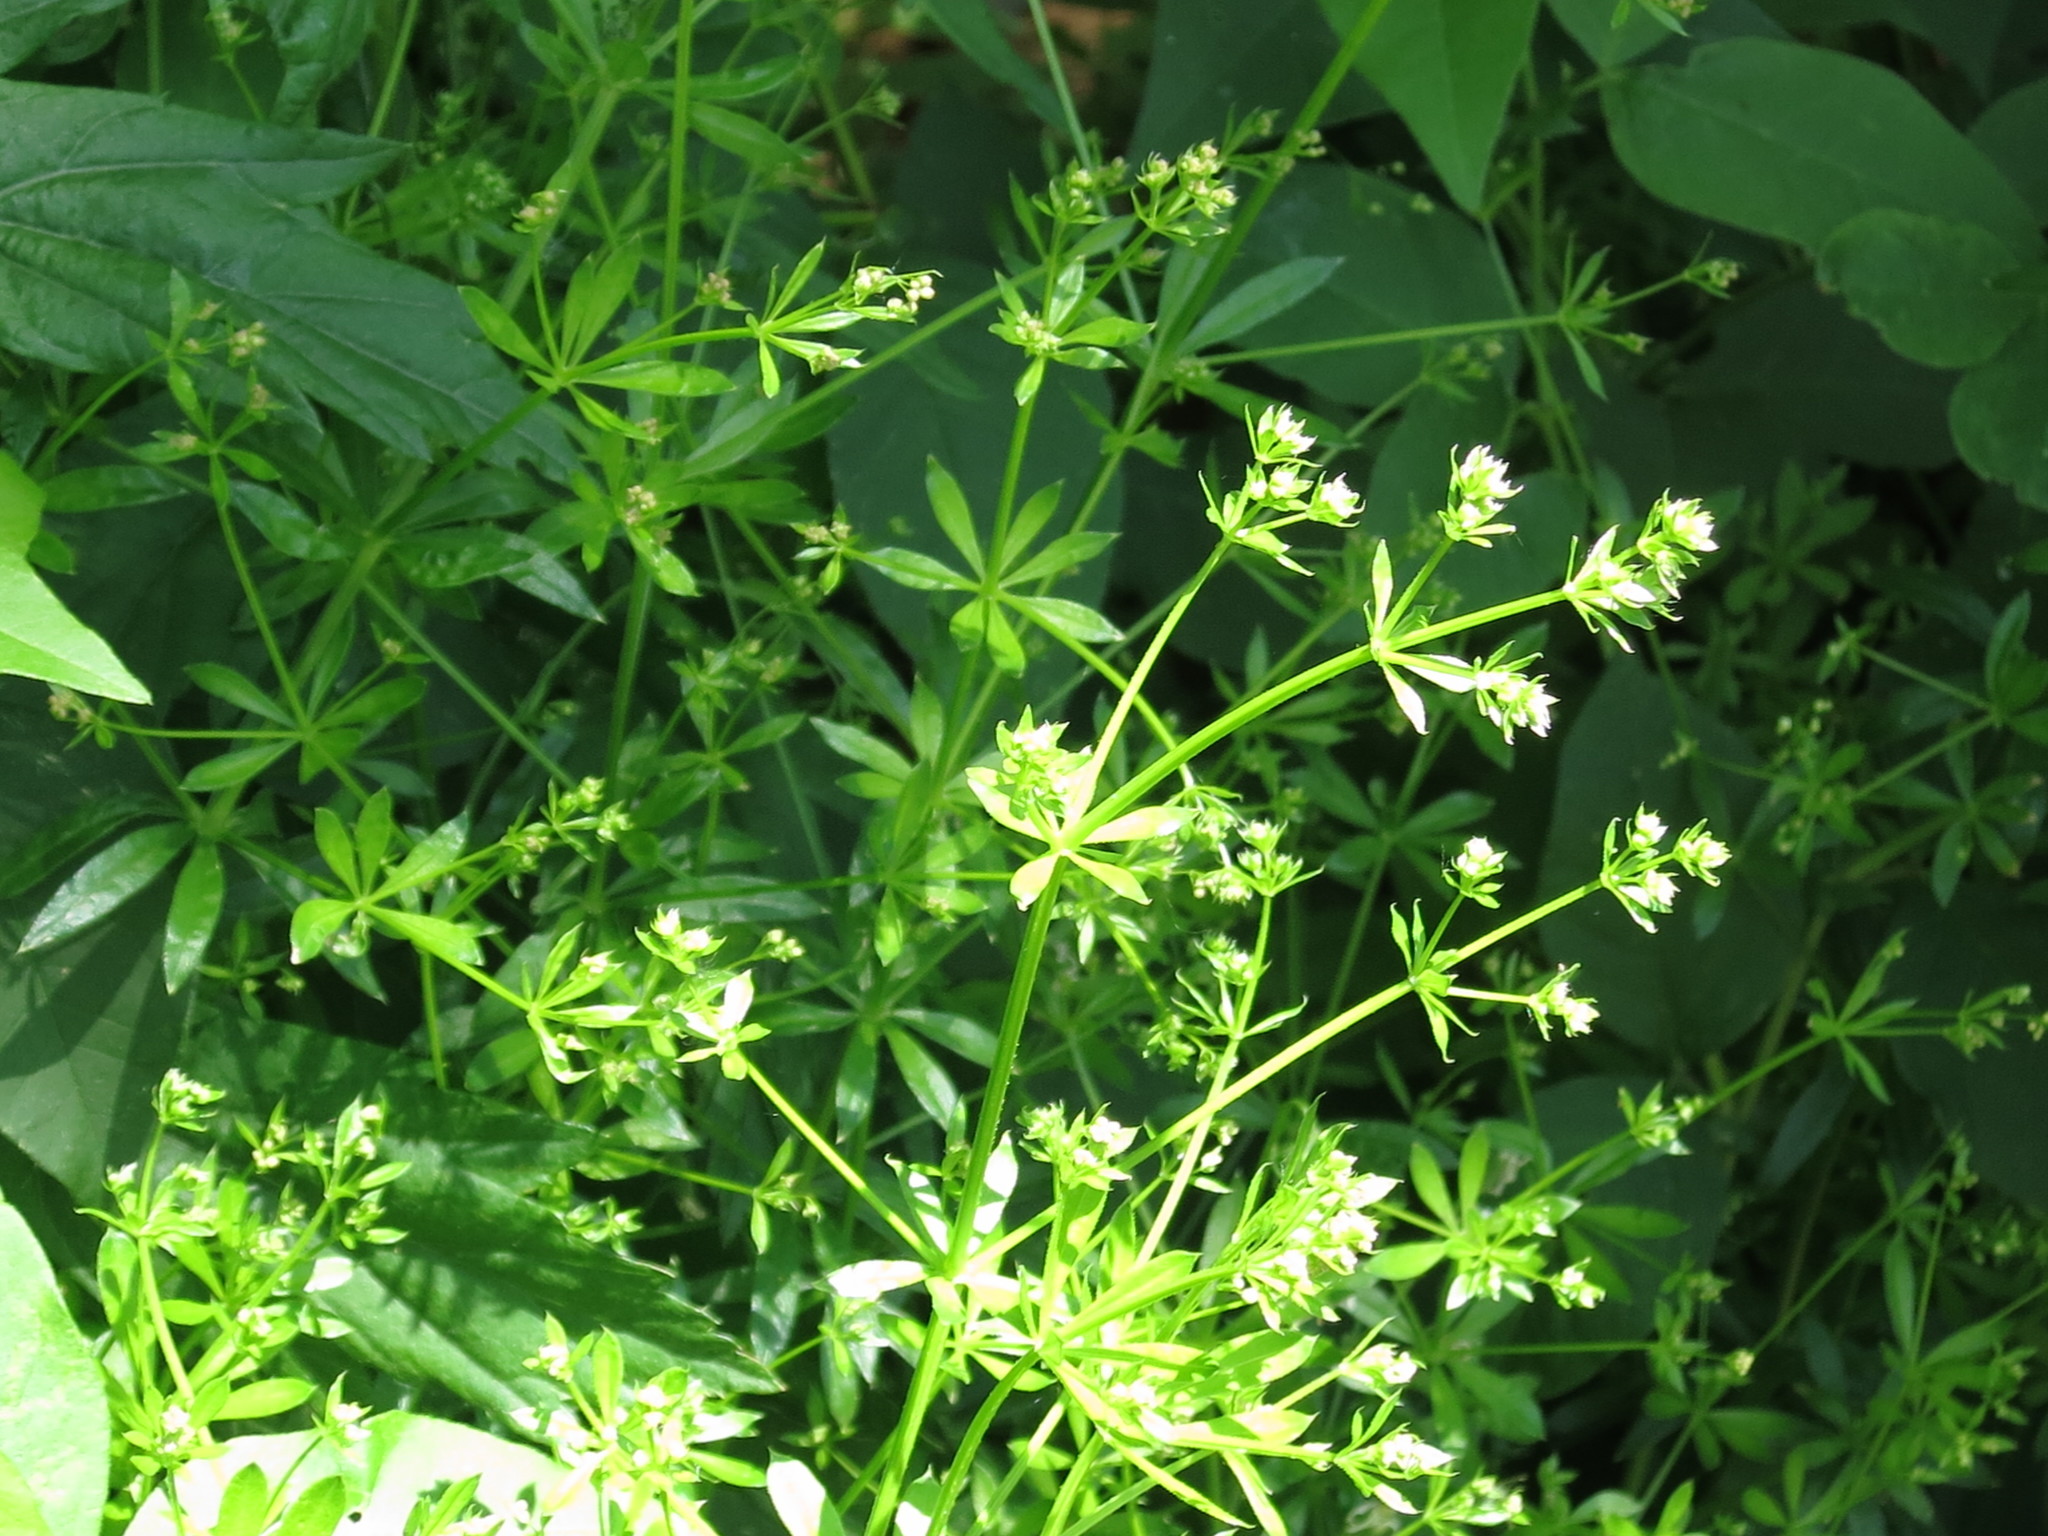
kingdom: Plantae
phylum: Tracheophyta
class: Magnoliopsida
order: Gentianales
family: Rubiaceae
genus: Galium
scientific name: Galium dahuricum
